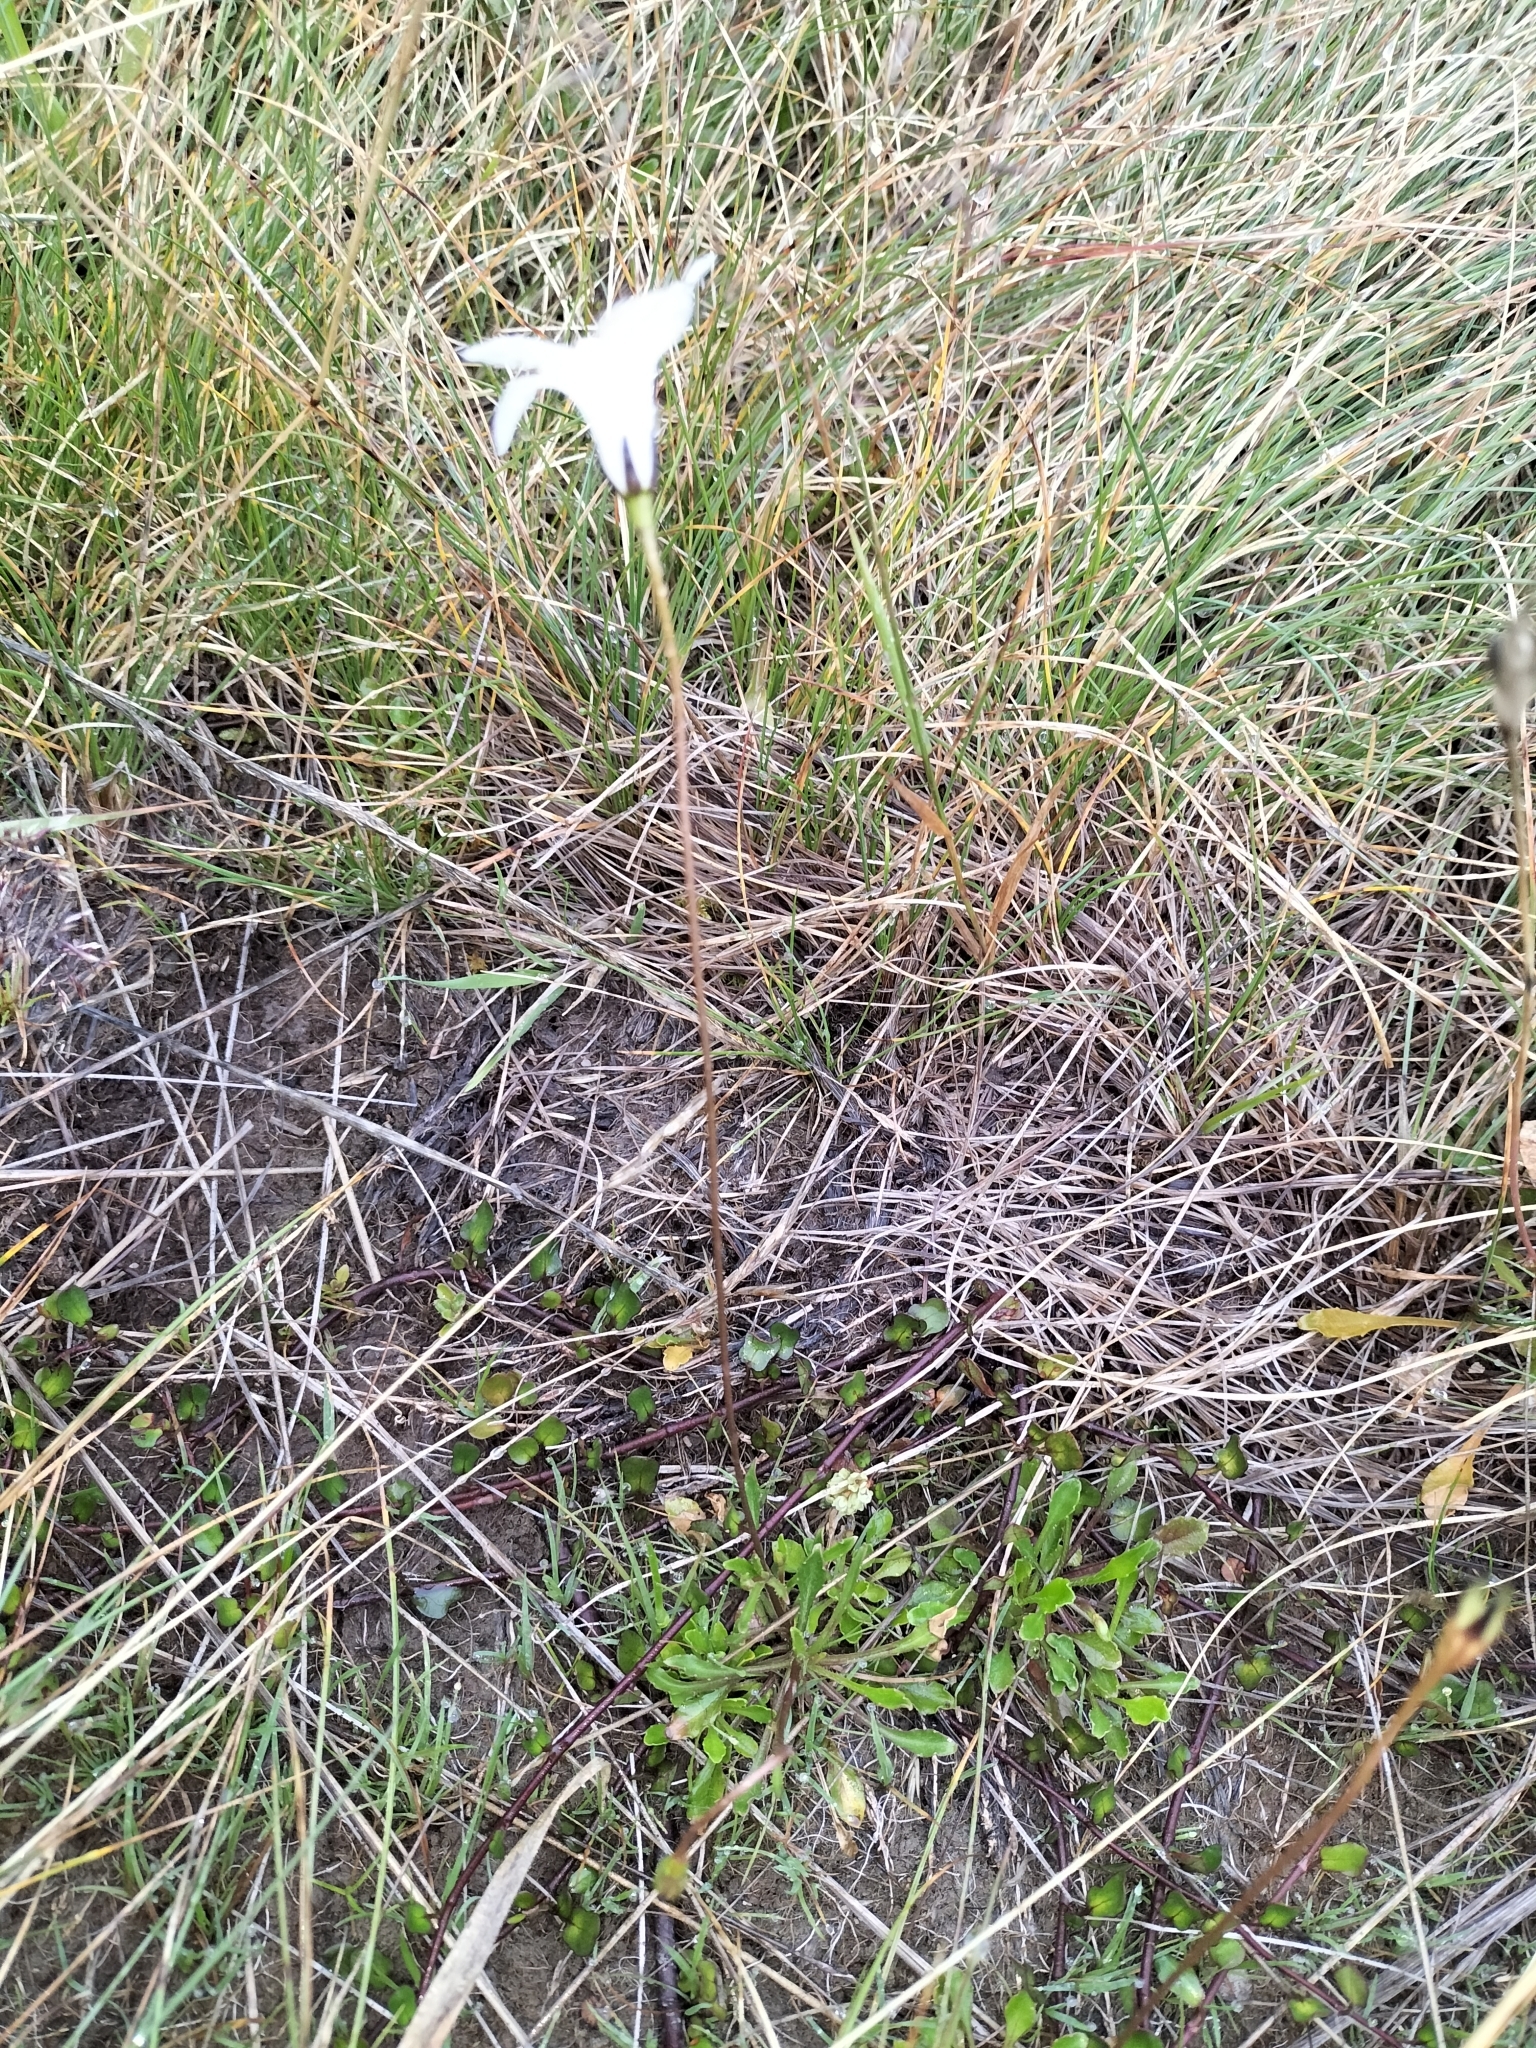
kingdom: Plantae
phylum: Tracheophyta
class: Magnoliopsida
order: Asterales
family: Campanulaceae
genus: Wahlenbergia
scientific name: Wahlenbergia albomarginata
